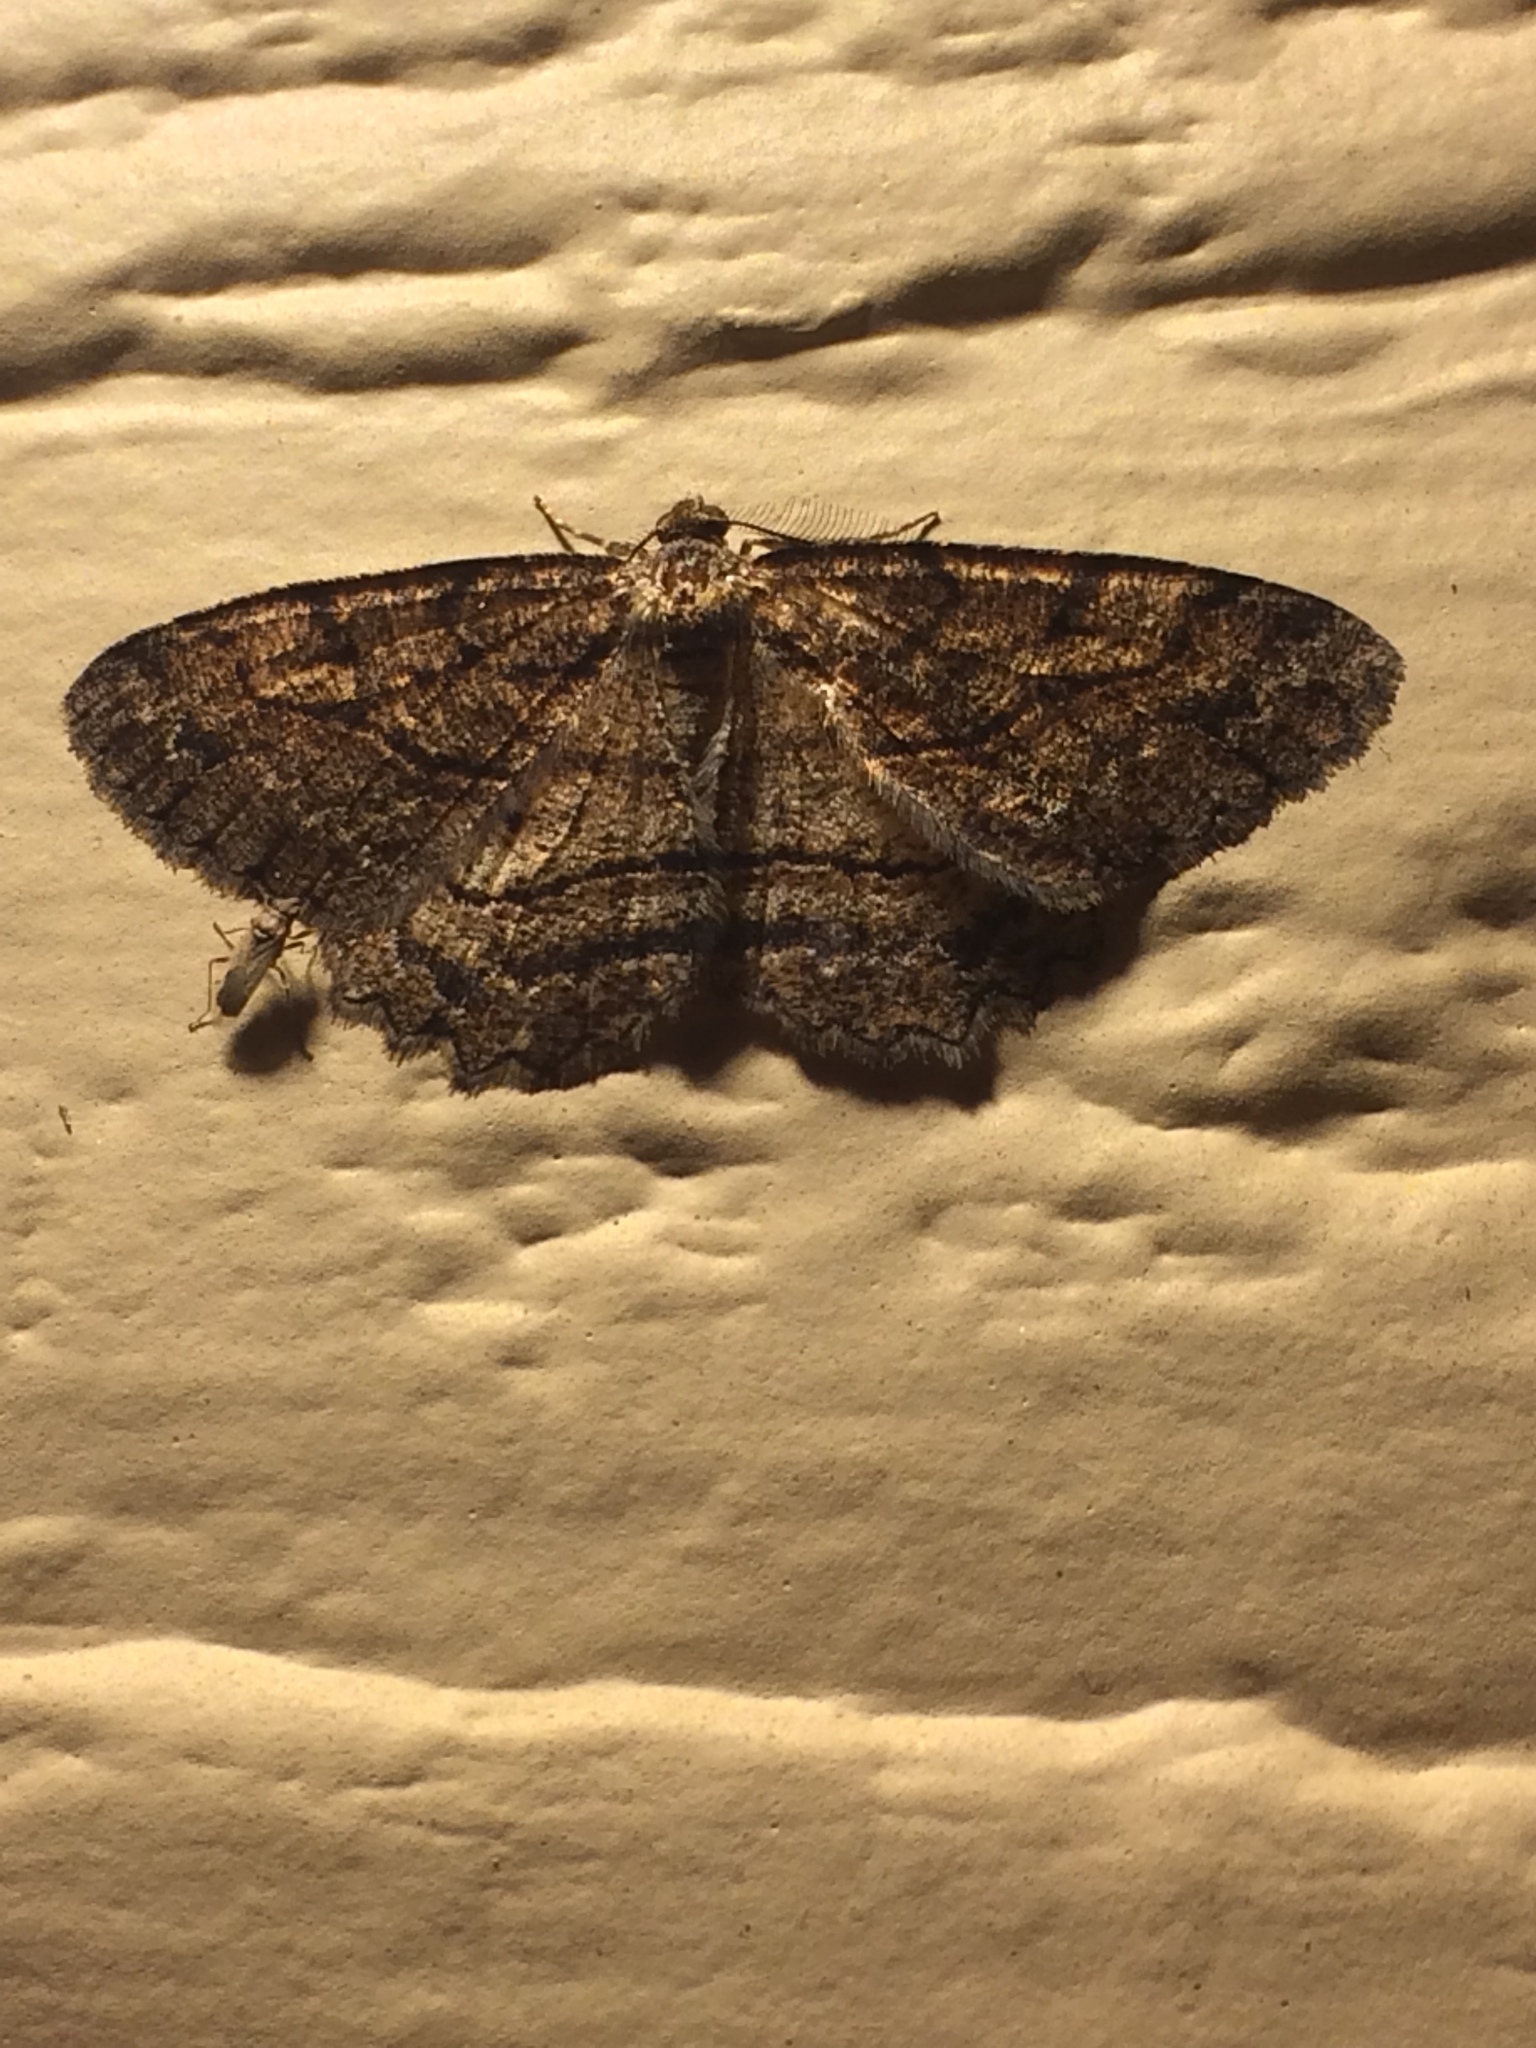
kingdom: Animalia
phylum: Arthropoda
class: Insecta
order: Lepidoptera
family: Geometridae
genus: Neoalcis
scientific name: Neoalcis californiaria
